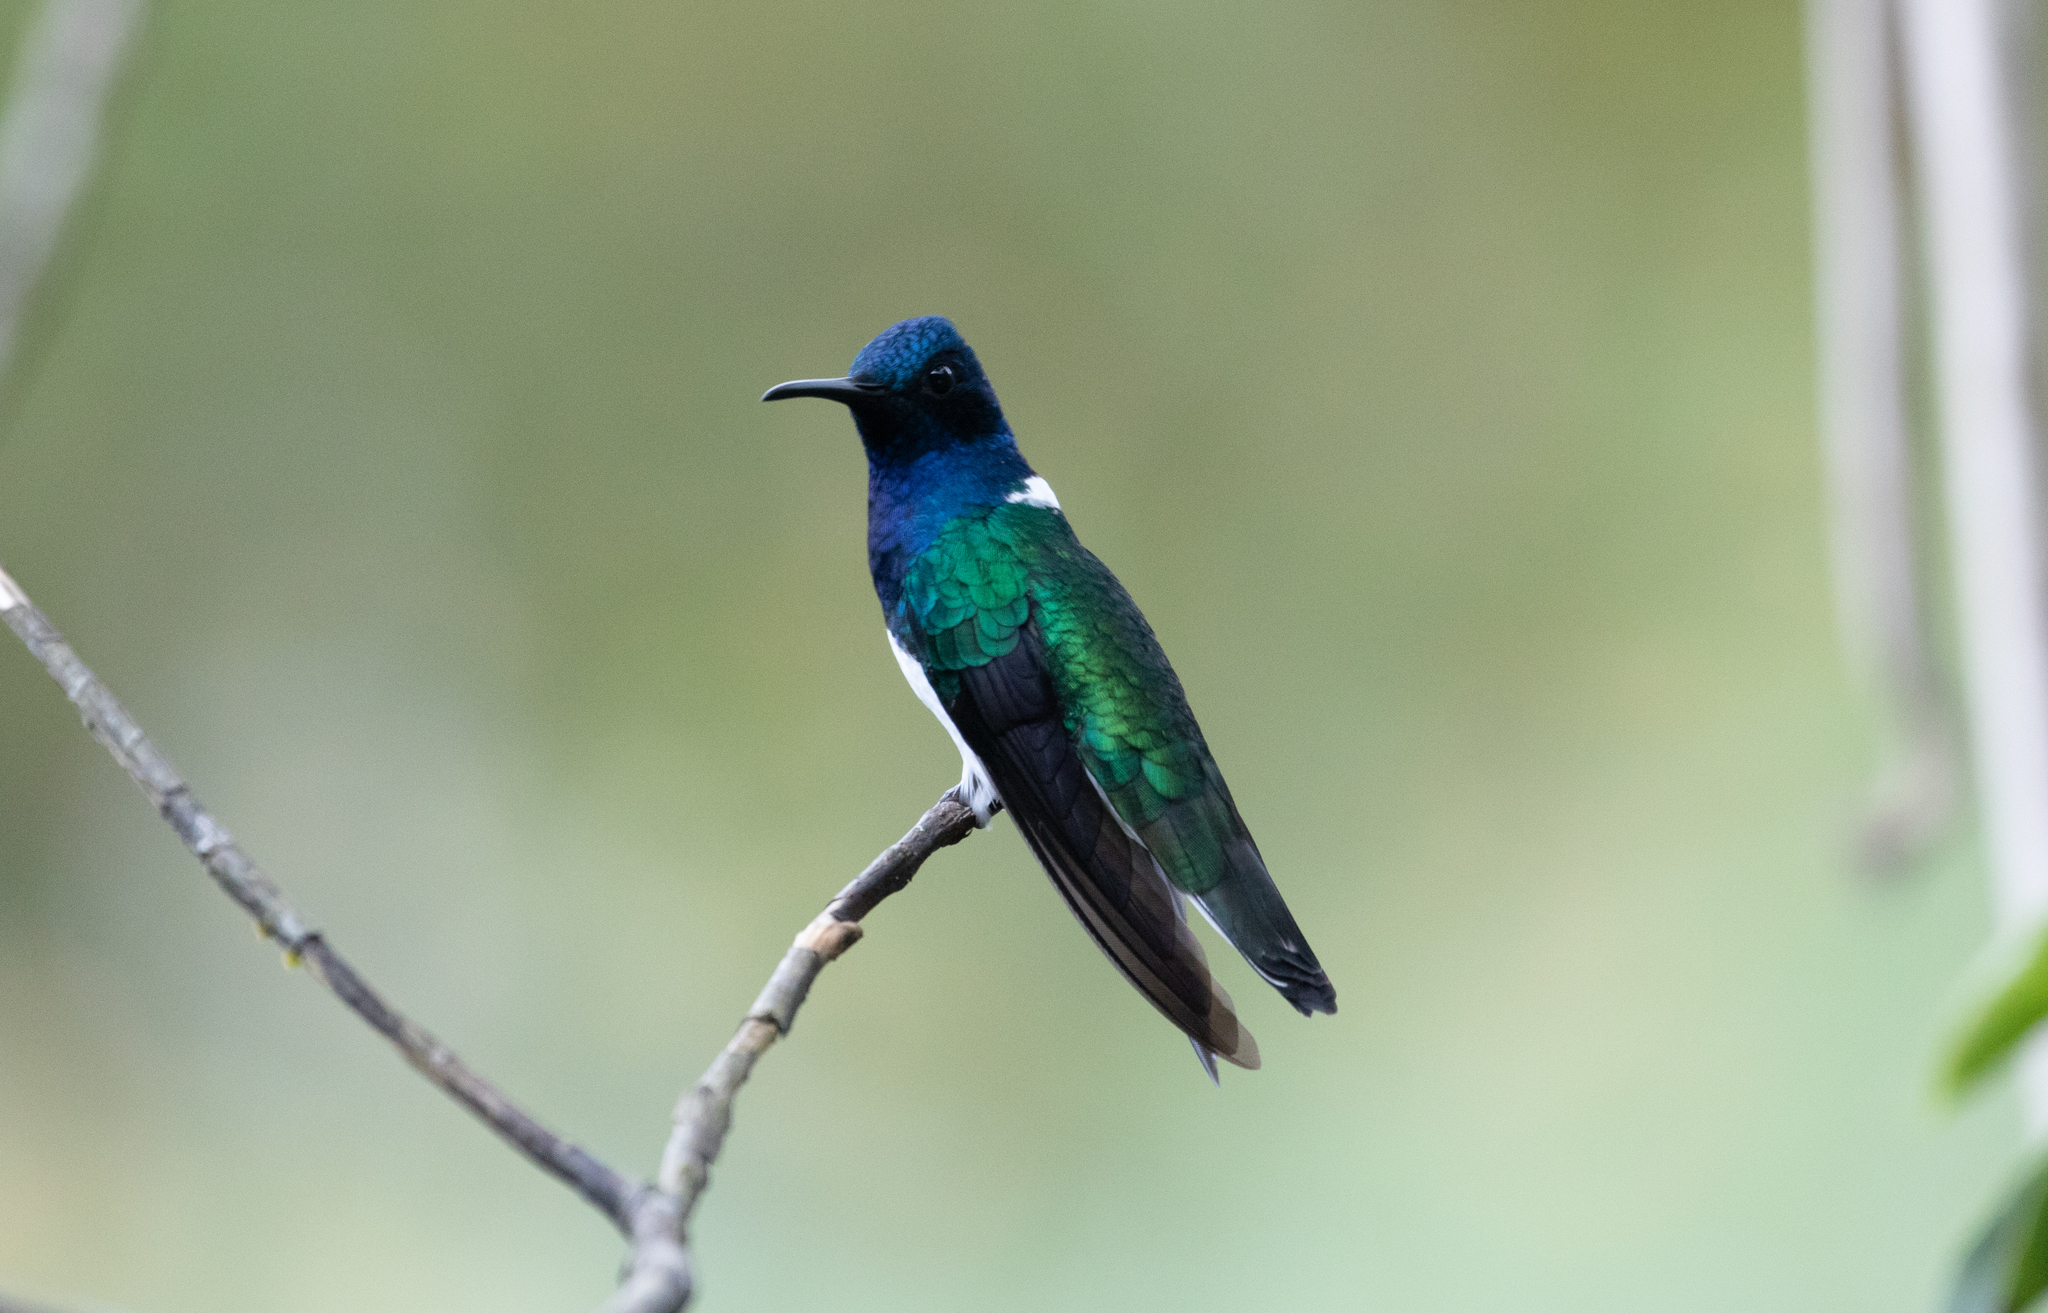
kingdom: Animalia
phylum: Chordata
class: Aves
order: Apodiformes
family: Trochilidae
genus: Florisuga
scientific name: Florisuga mellivora
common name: White-necked jacobin
